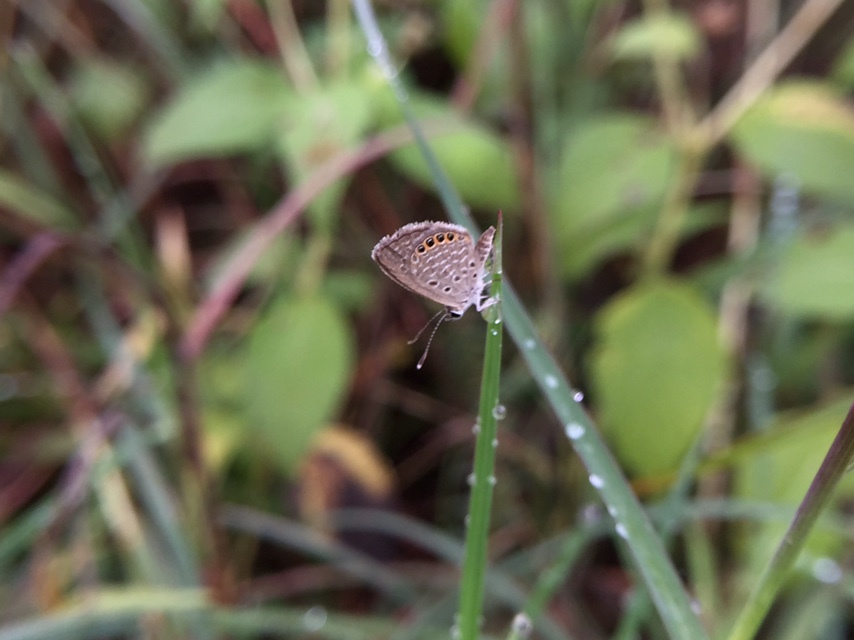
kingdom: Animalia
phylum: Arthropoda
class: Insecta
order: Lepidoptera
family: Lycaenidae
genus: Freyeria
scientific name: Freyeria putli
